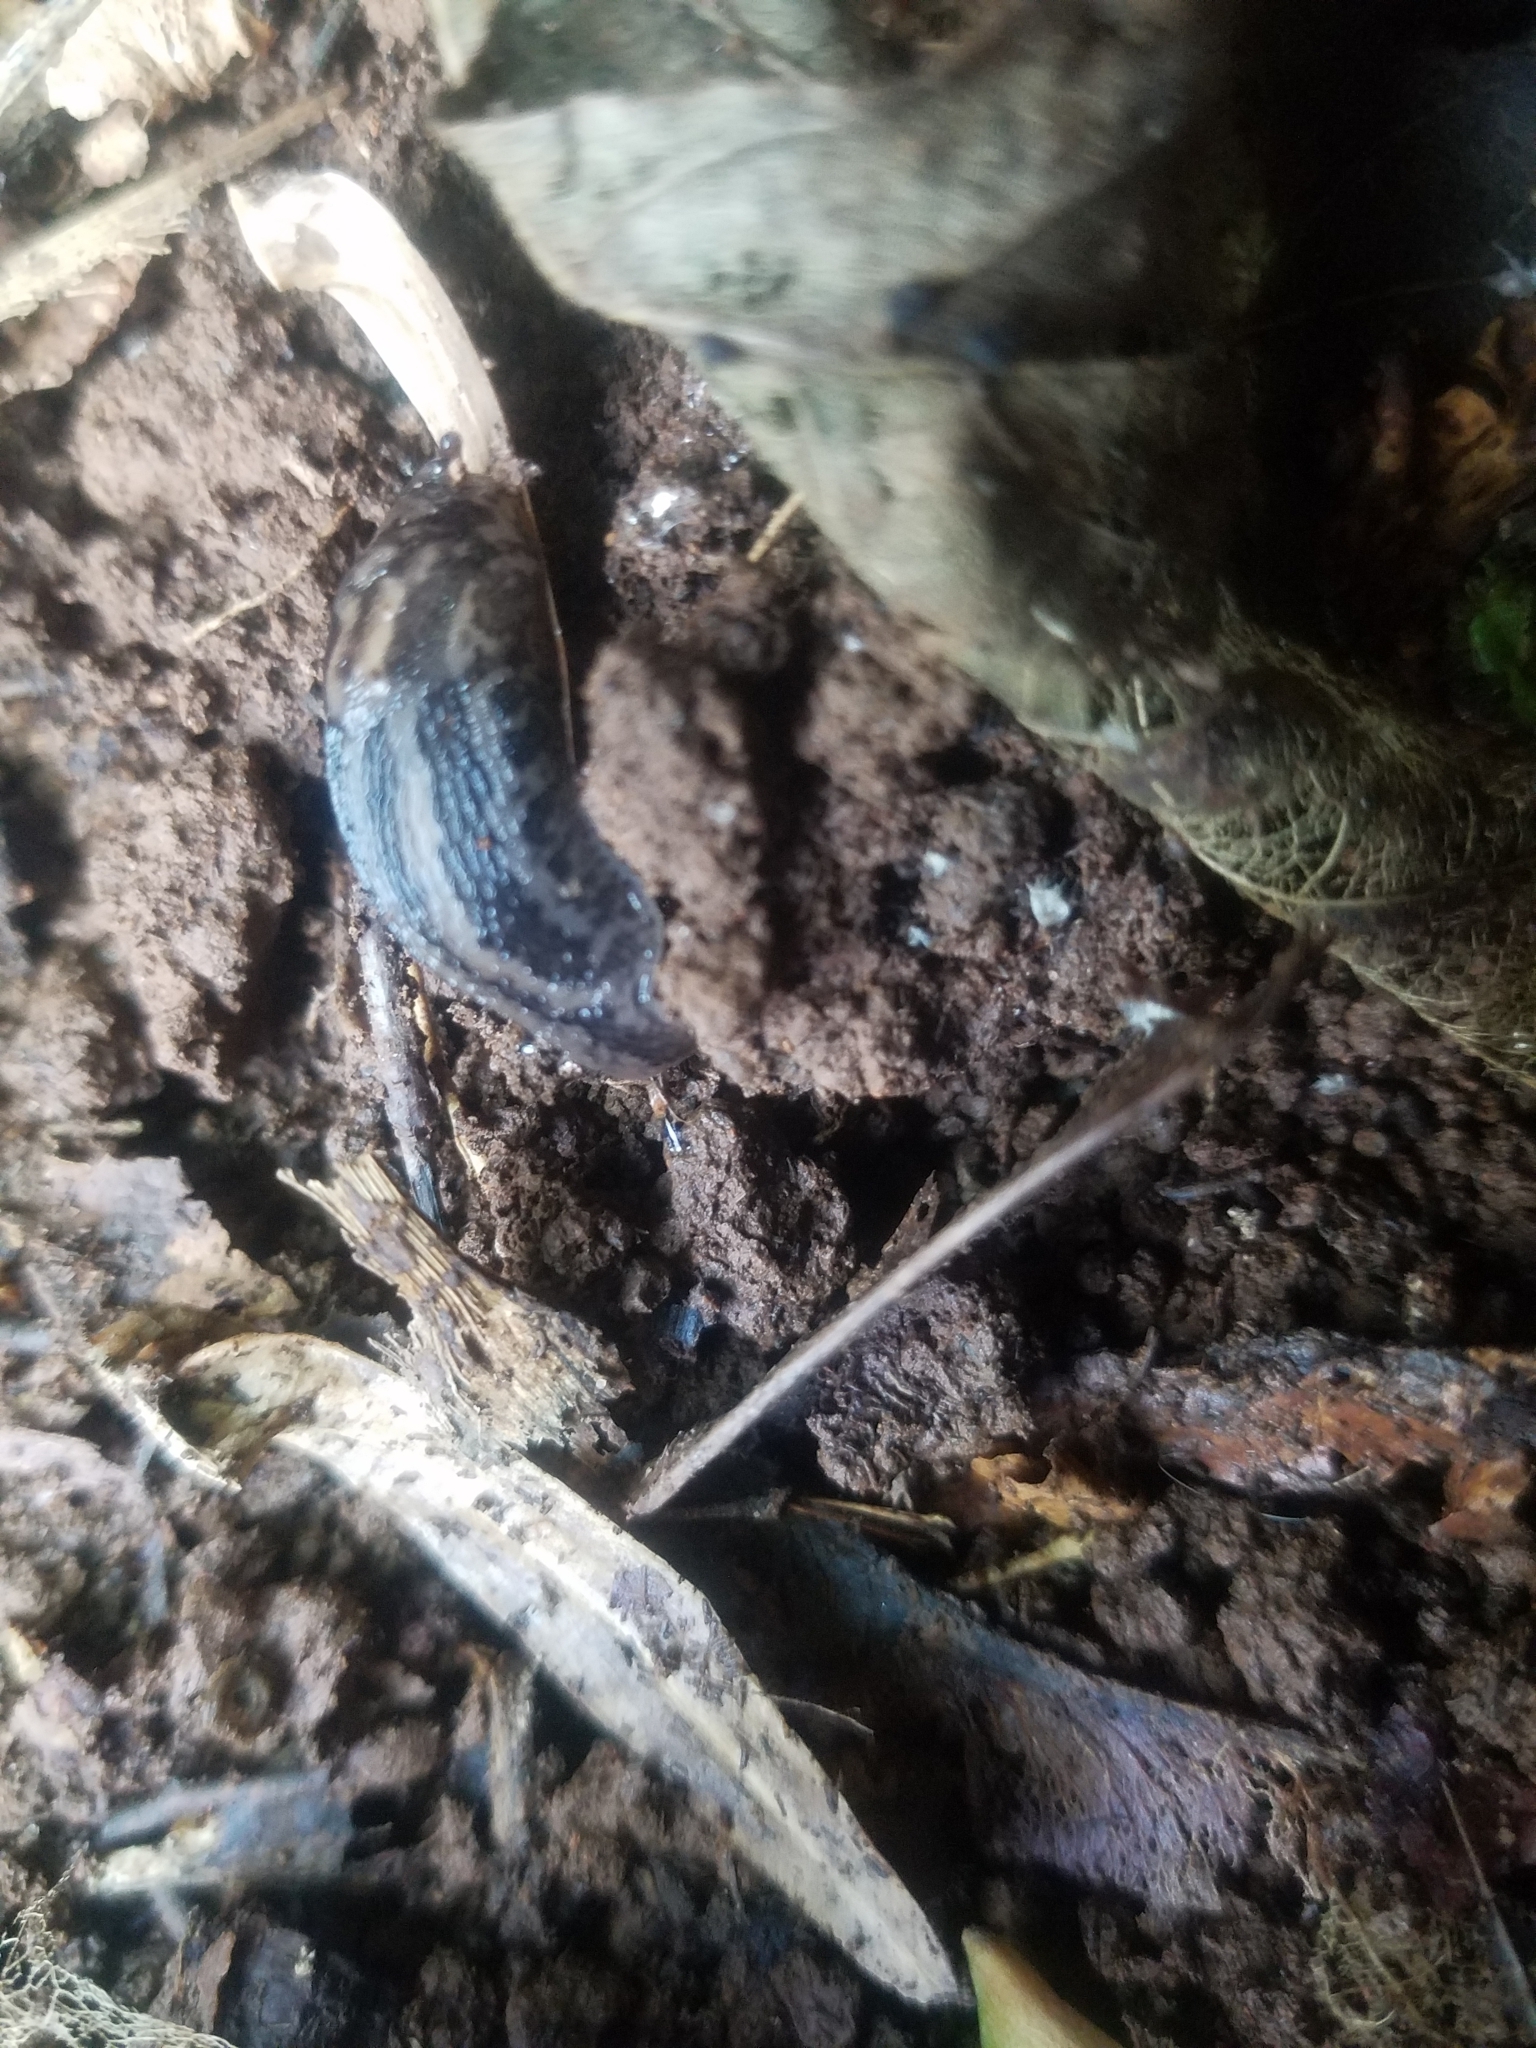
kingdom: Animalia
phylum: Mollusca
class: Gastropoda
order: Stylommatophora
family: Limacidae
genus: Limax
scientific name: Limax maximus
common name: Great grey slug
